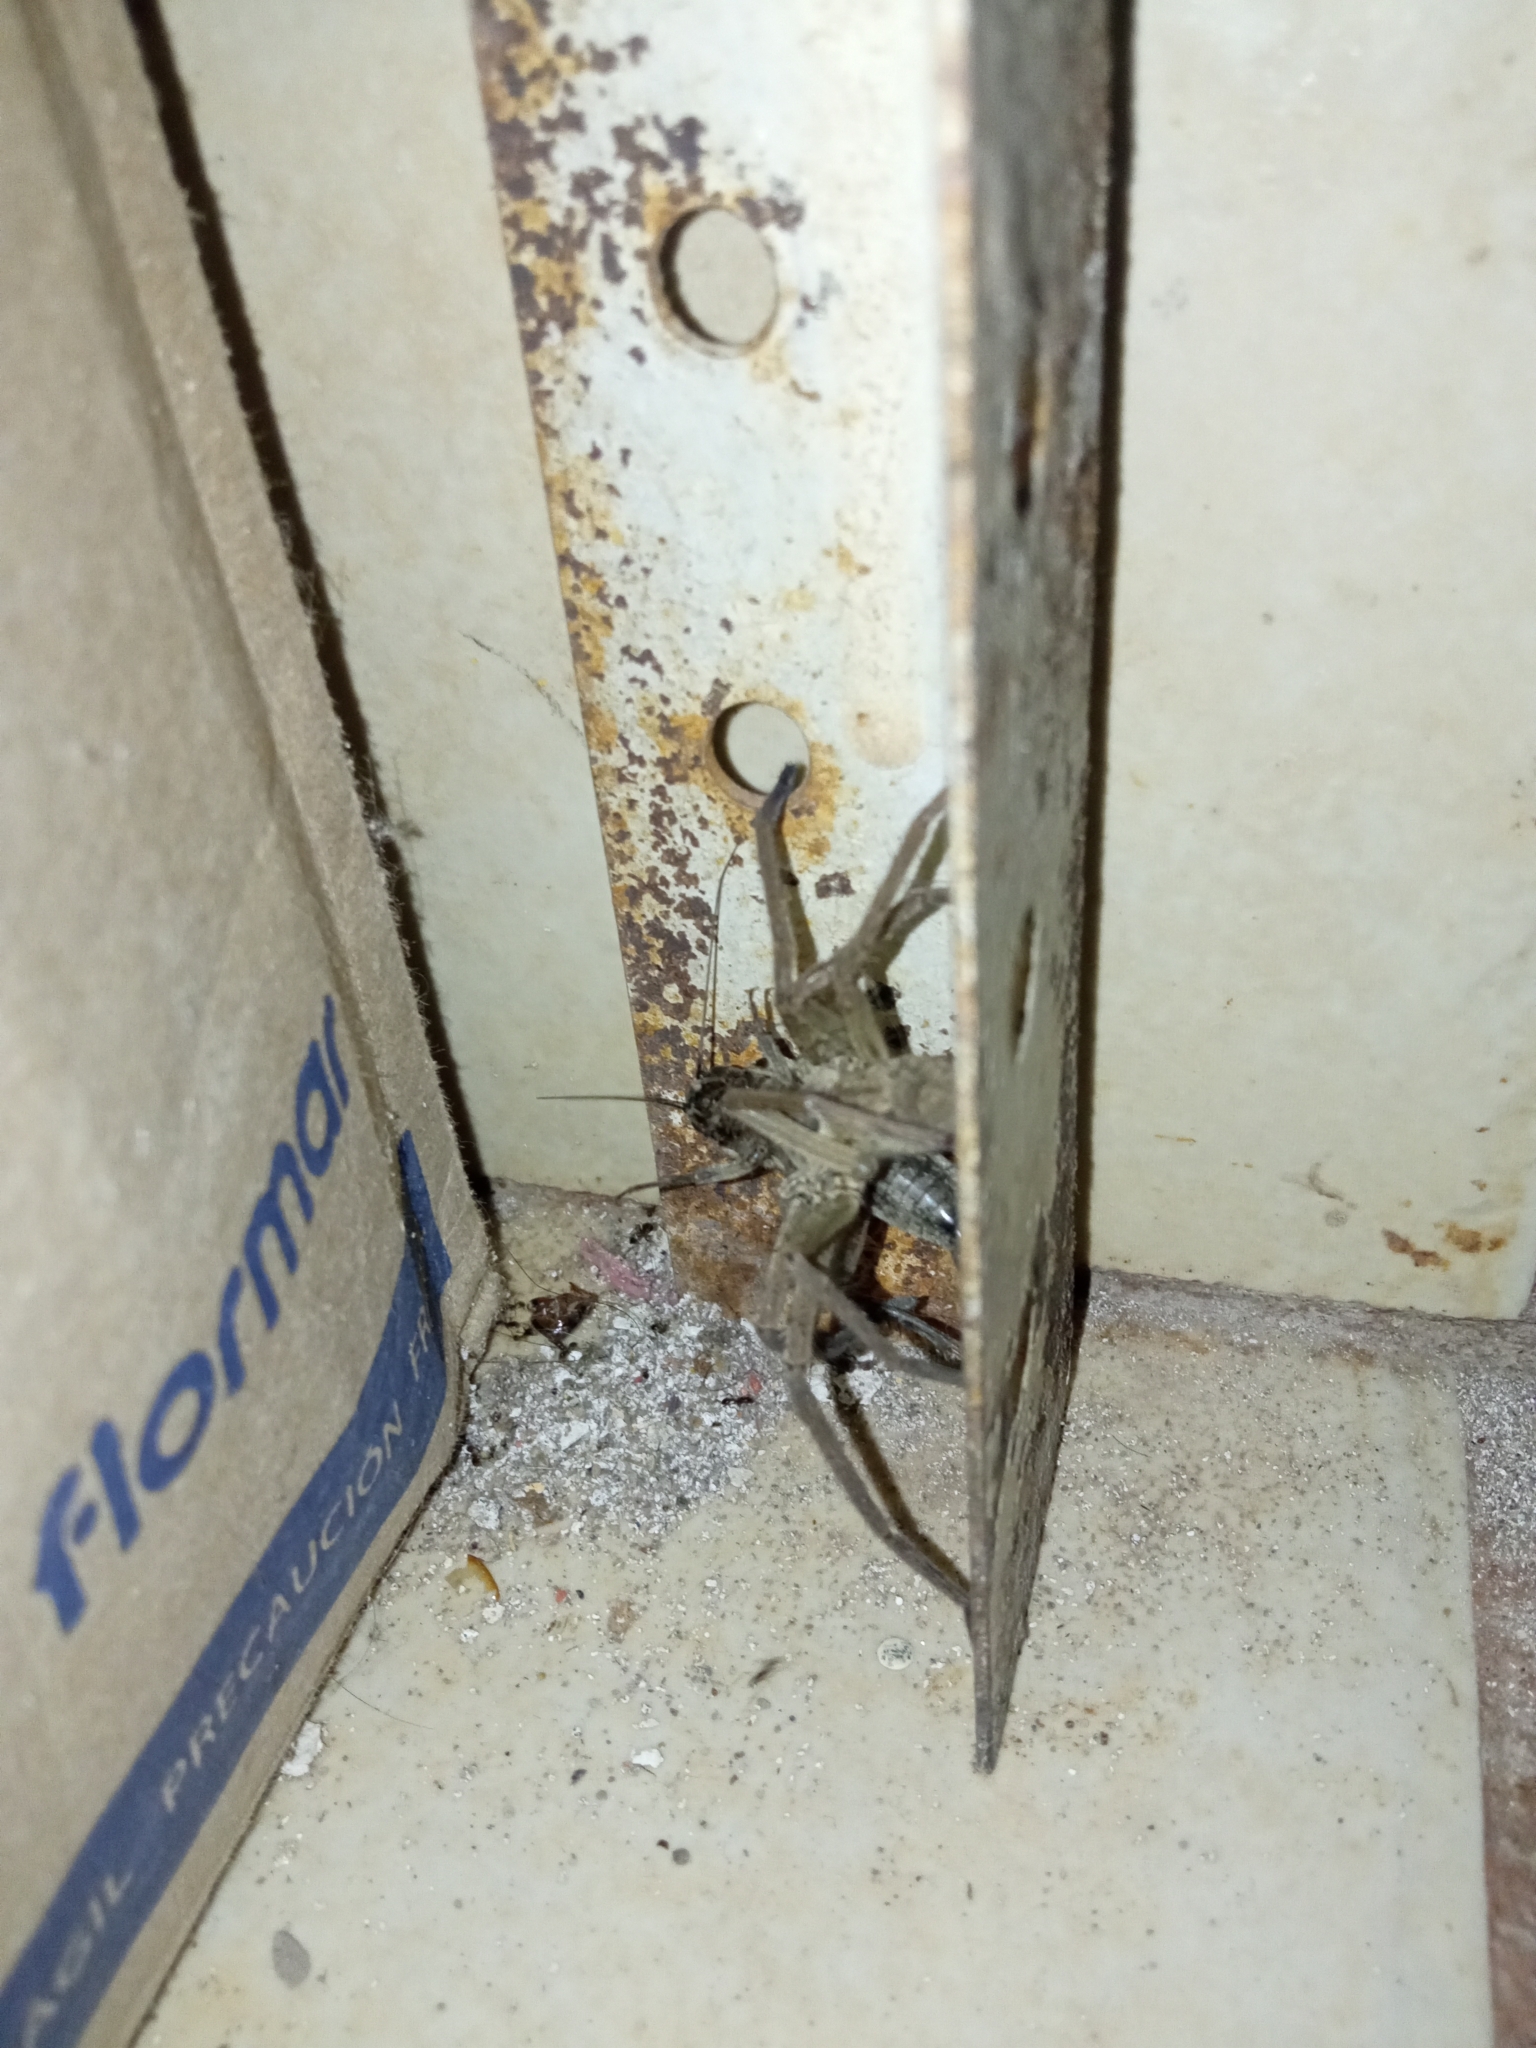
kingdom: Animalia
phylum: Arthropoda
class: Arachnida
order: Araneae
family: Sparassidae
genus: Heteropoda
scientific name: Heteropoda venatoria
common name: Huntsman spider
